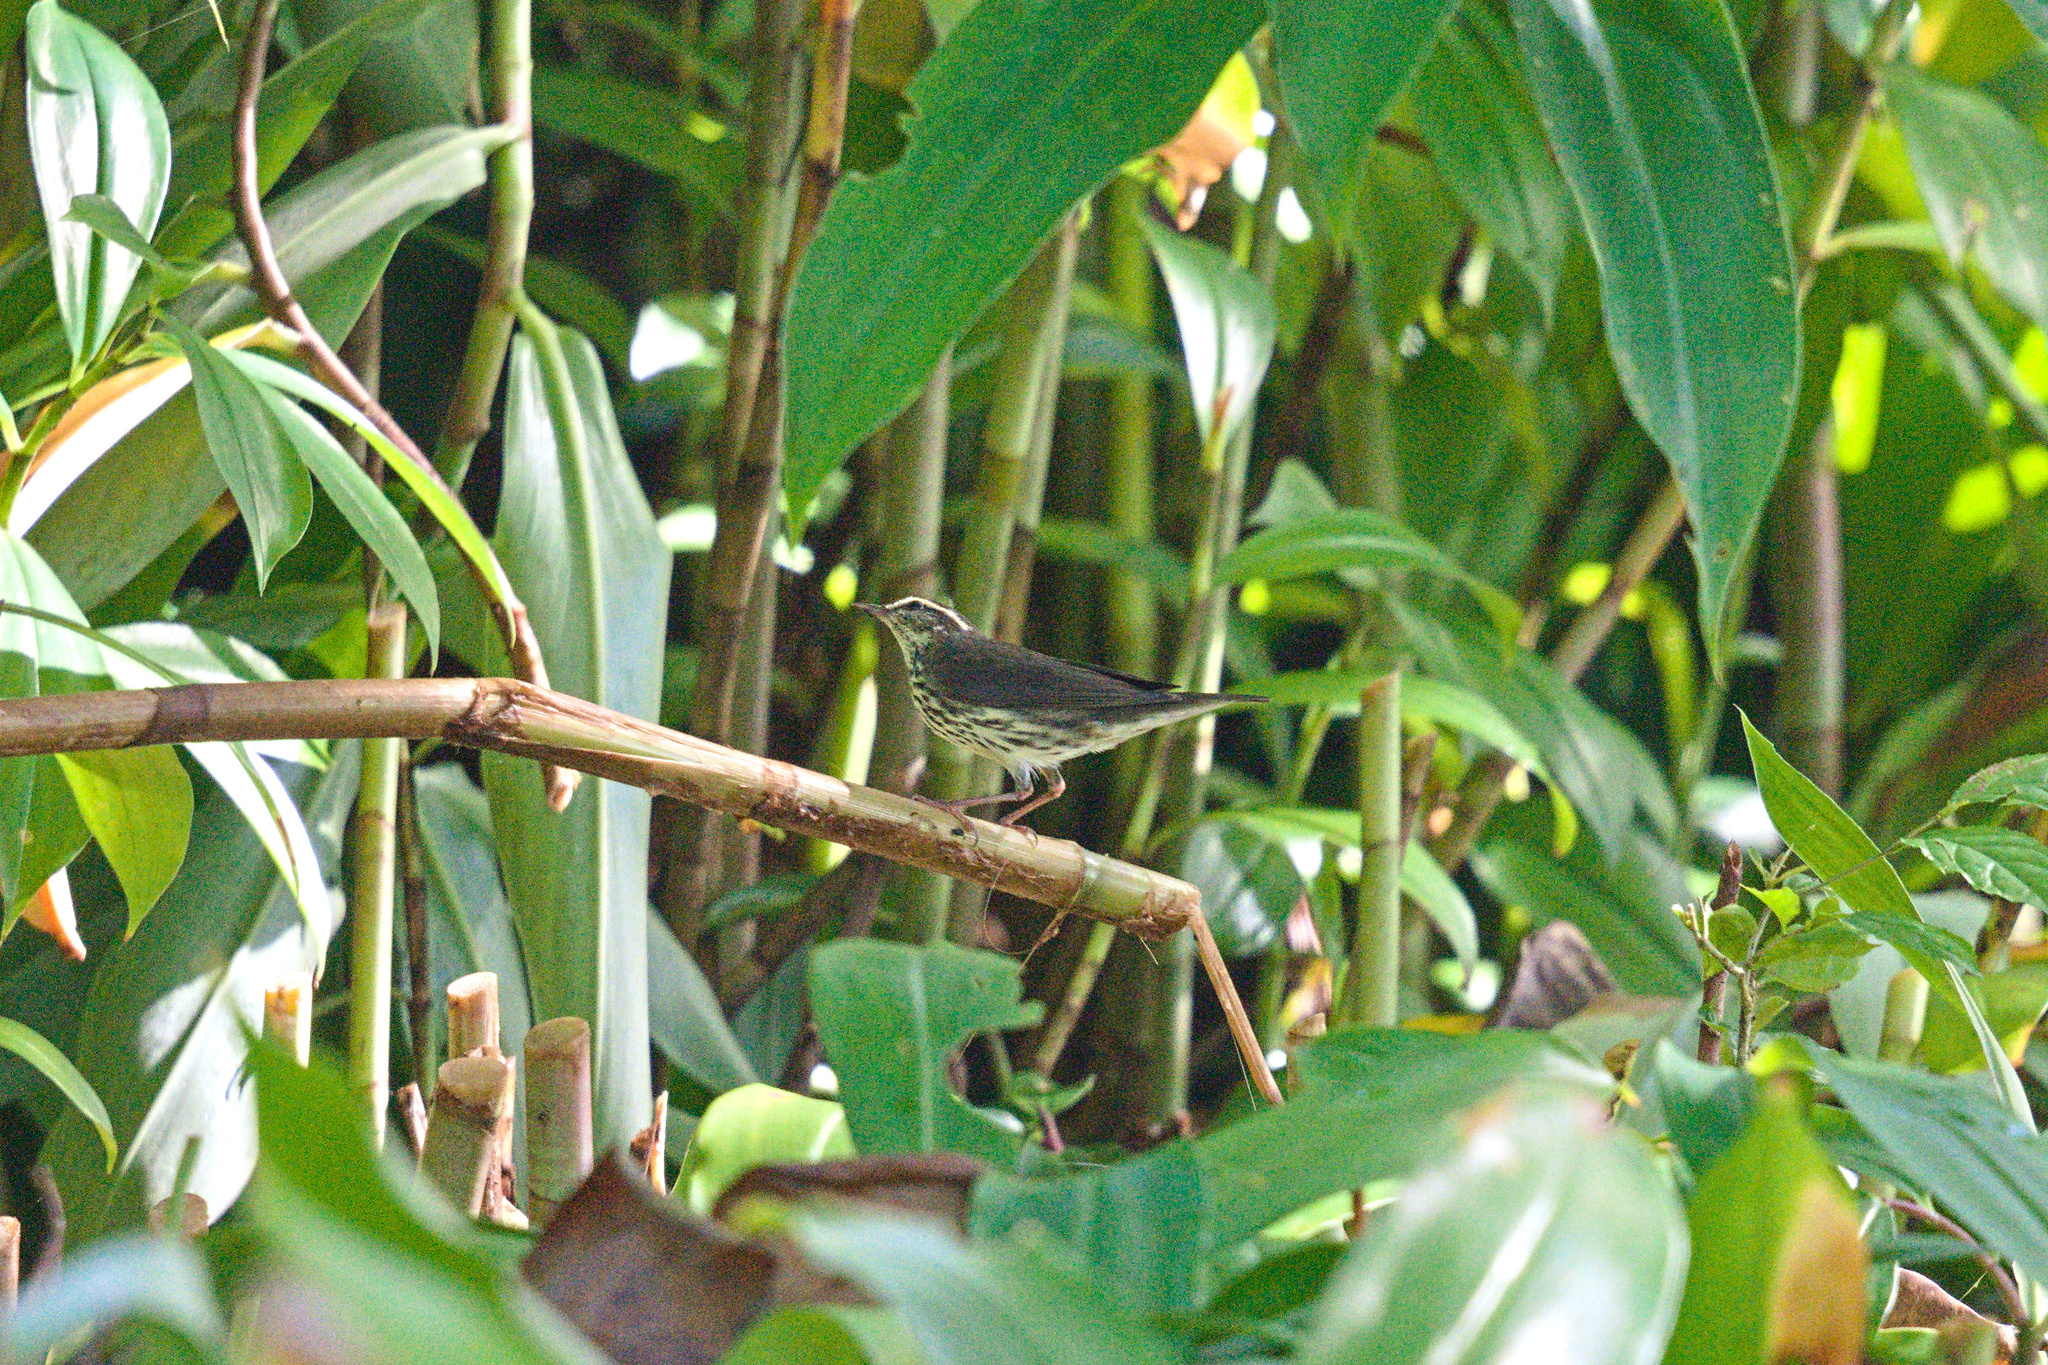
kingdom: Animalia
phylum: Chordata
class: Aves
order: Passeriformes
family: Parulidae
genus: Parkesia
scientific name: Parkesia noveboracensis
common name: Northern waterthrush
